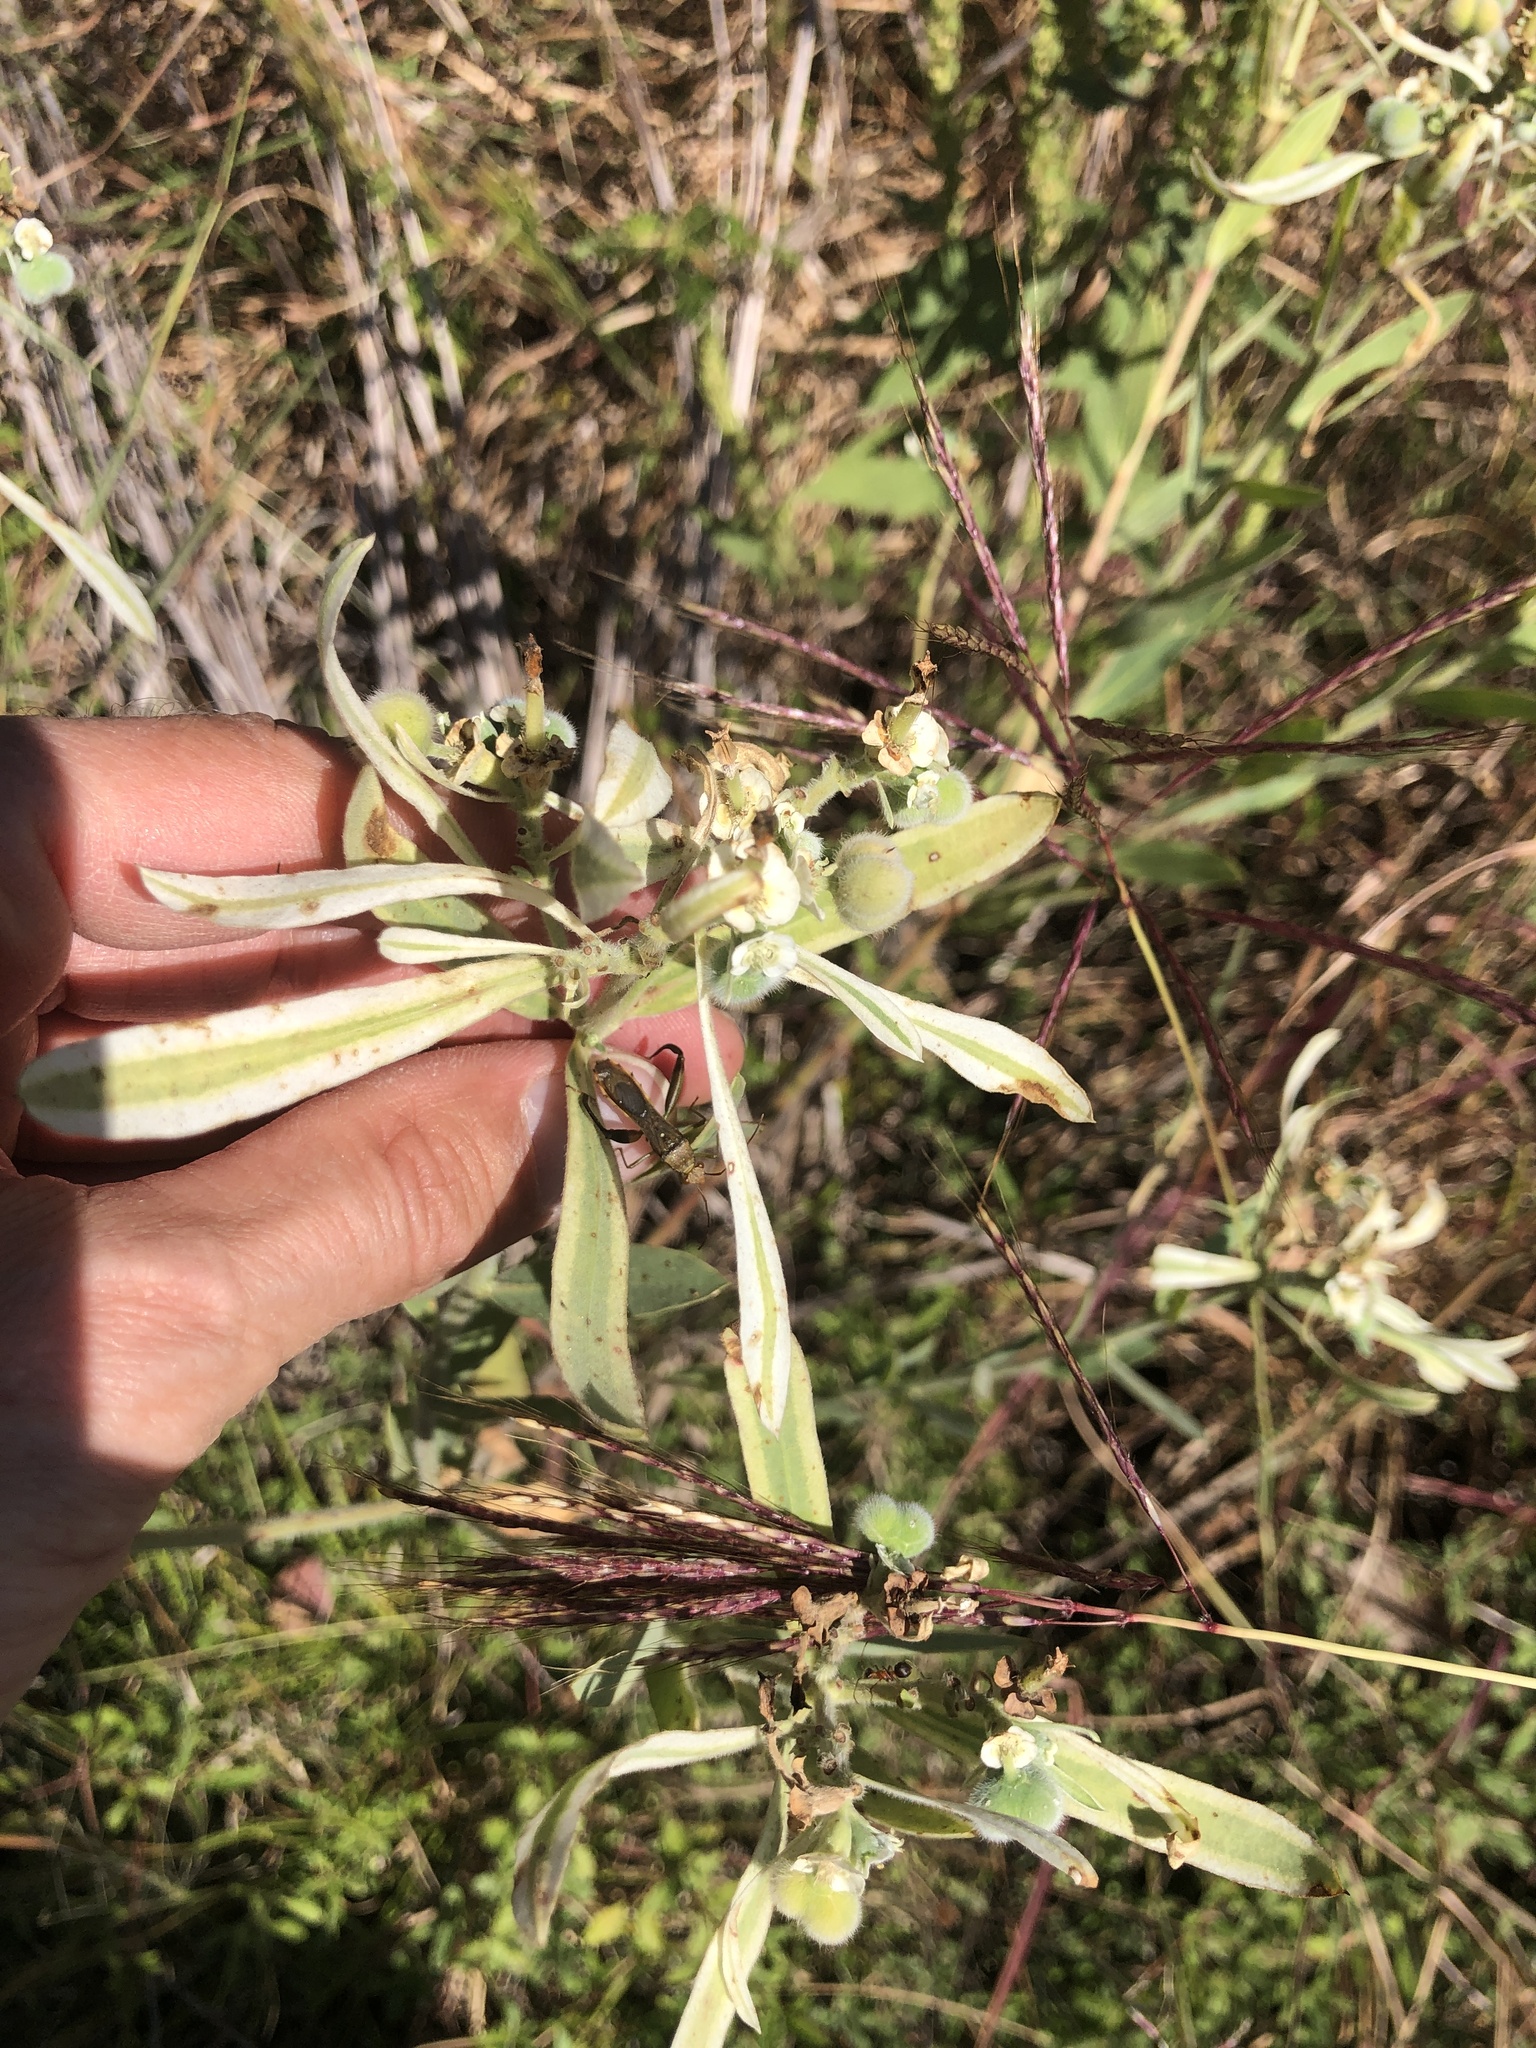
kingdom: Plantae
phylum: Tracheophyta
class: Magnoliopsida
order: Malpighiales
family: Euphorbiaceae
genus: Euphorbia
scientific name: Euphorbia bicolor
